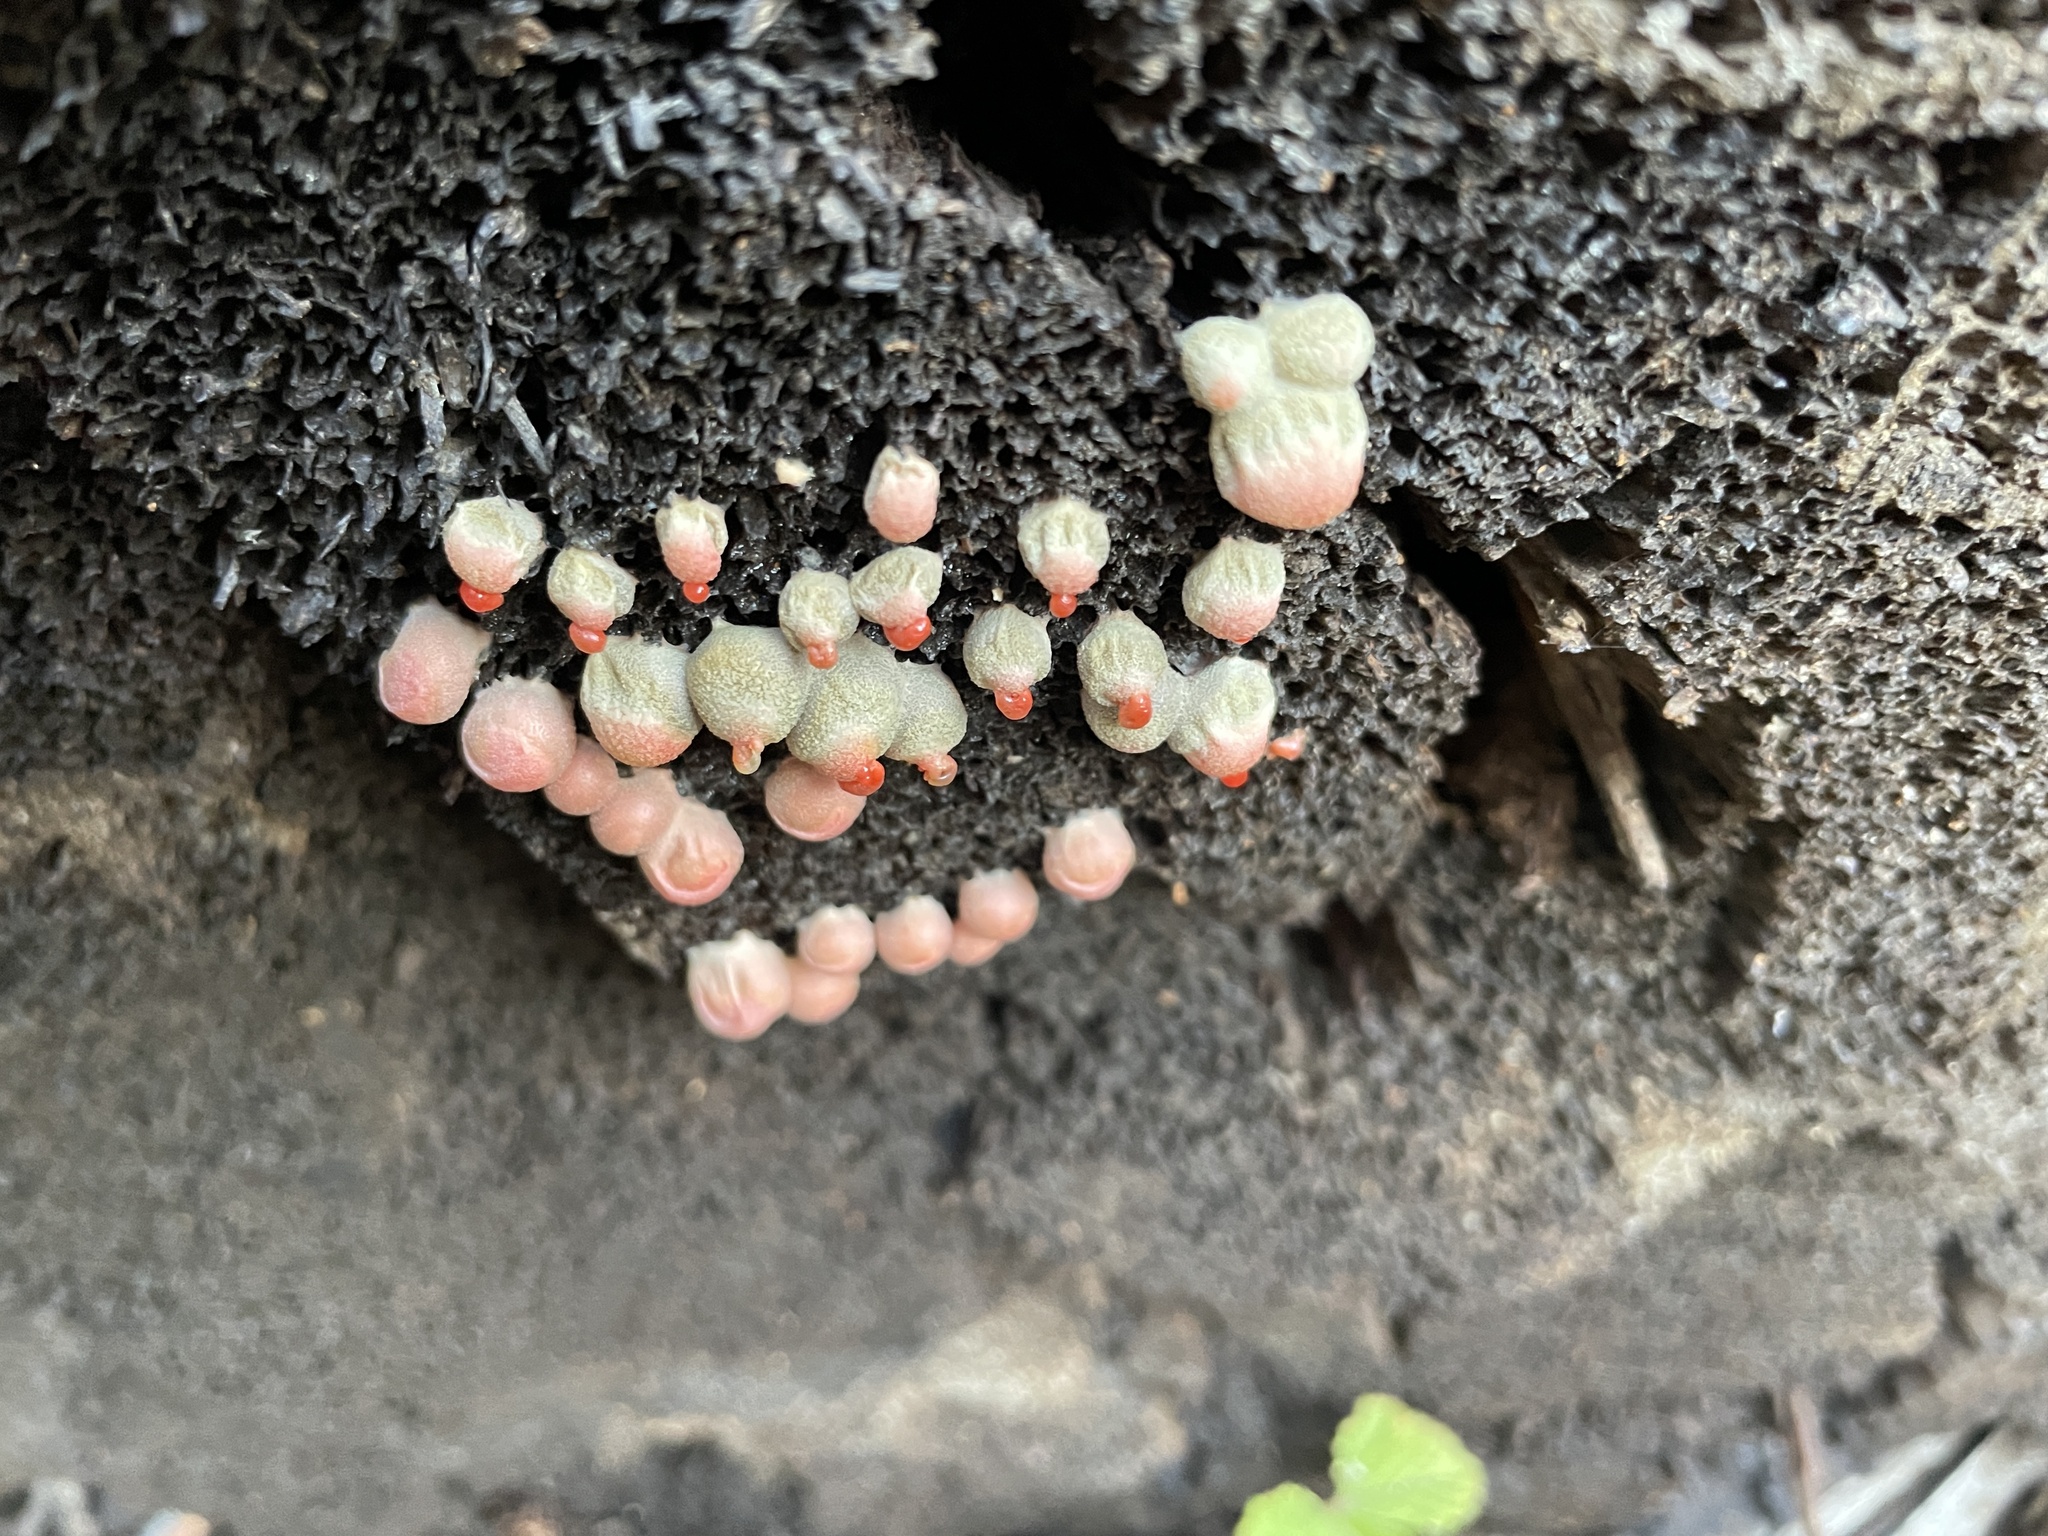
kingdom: Protozoa
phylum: Mycetozoa
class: Myxomycetes
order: Cribrariales
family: Tubiferaceae
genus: Lycogala
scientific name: Lycogala epidendrum
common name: Wolf's milk
